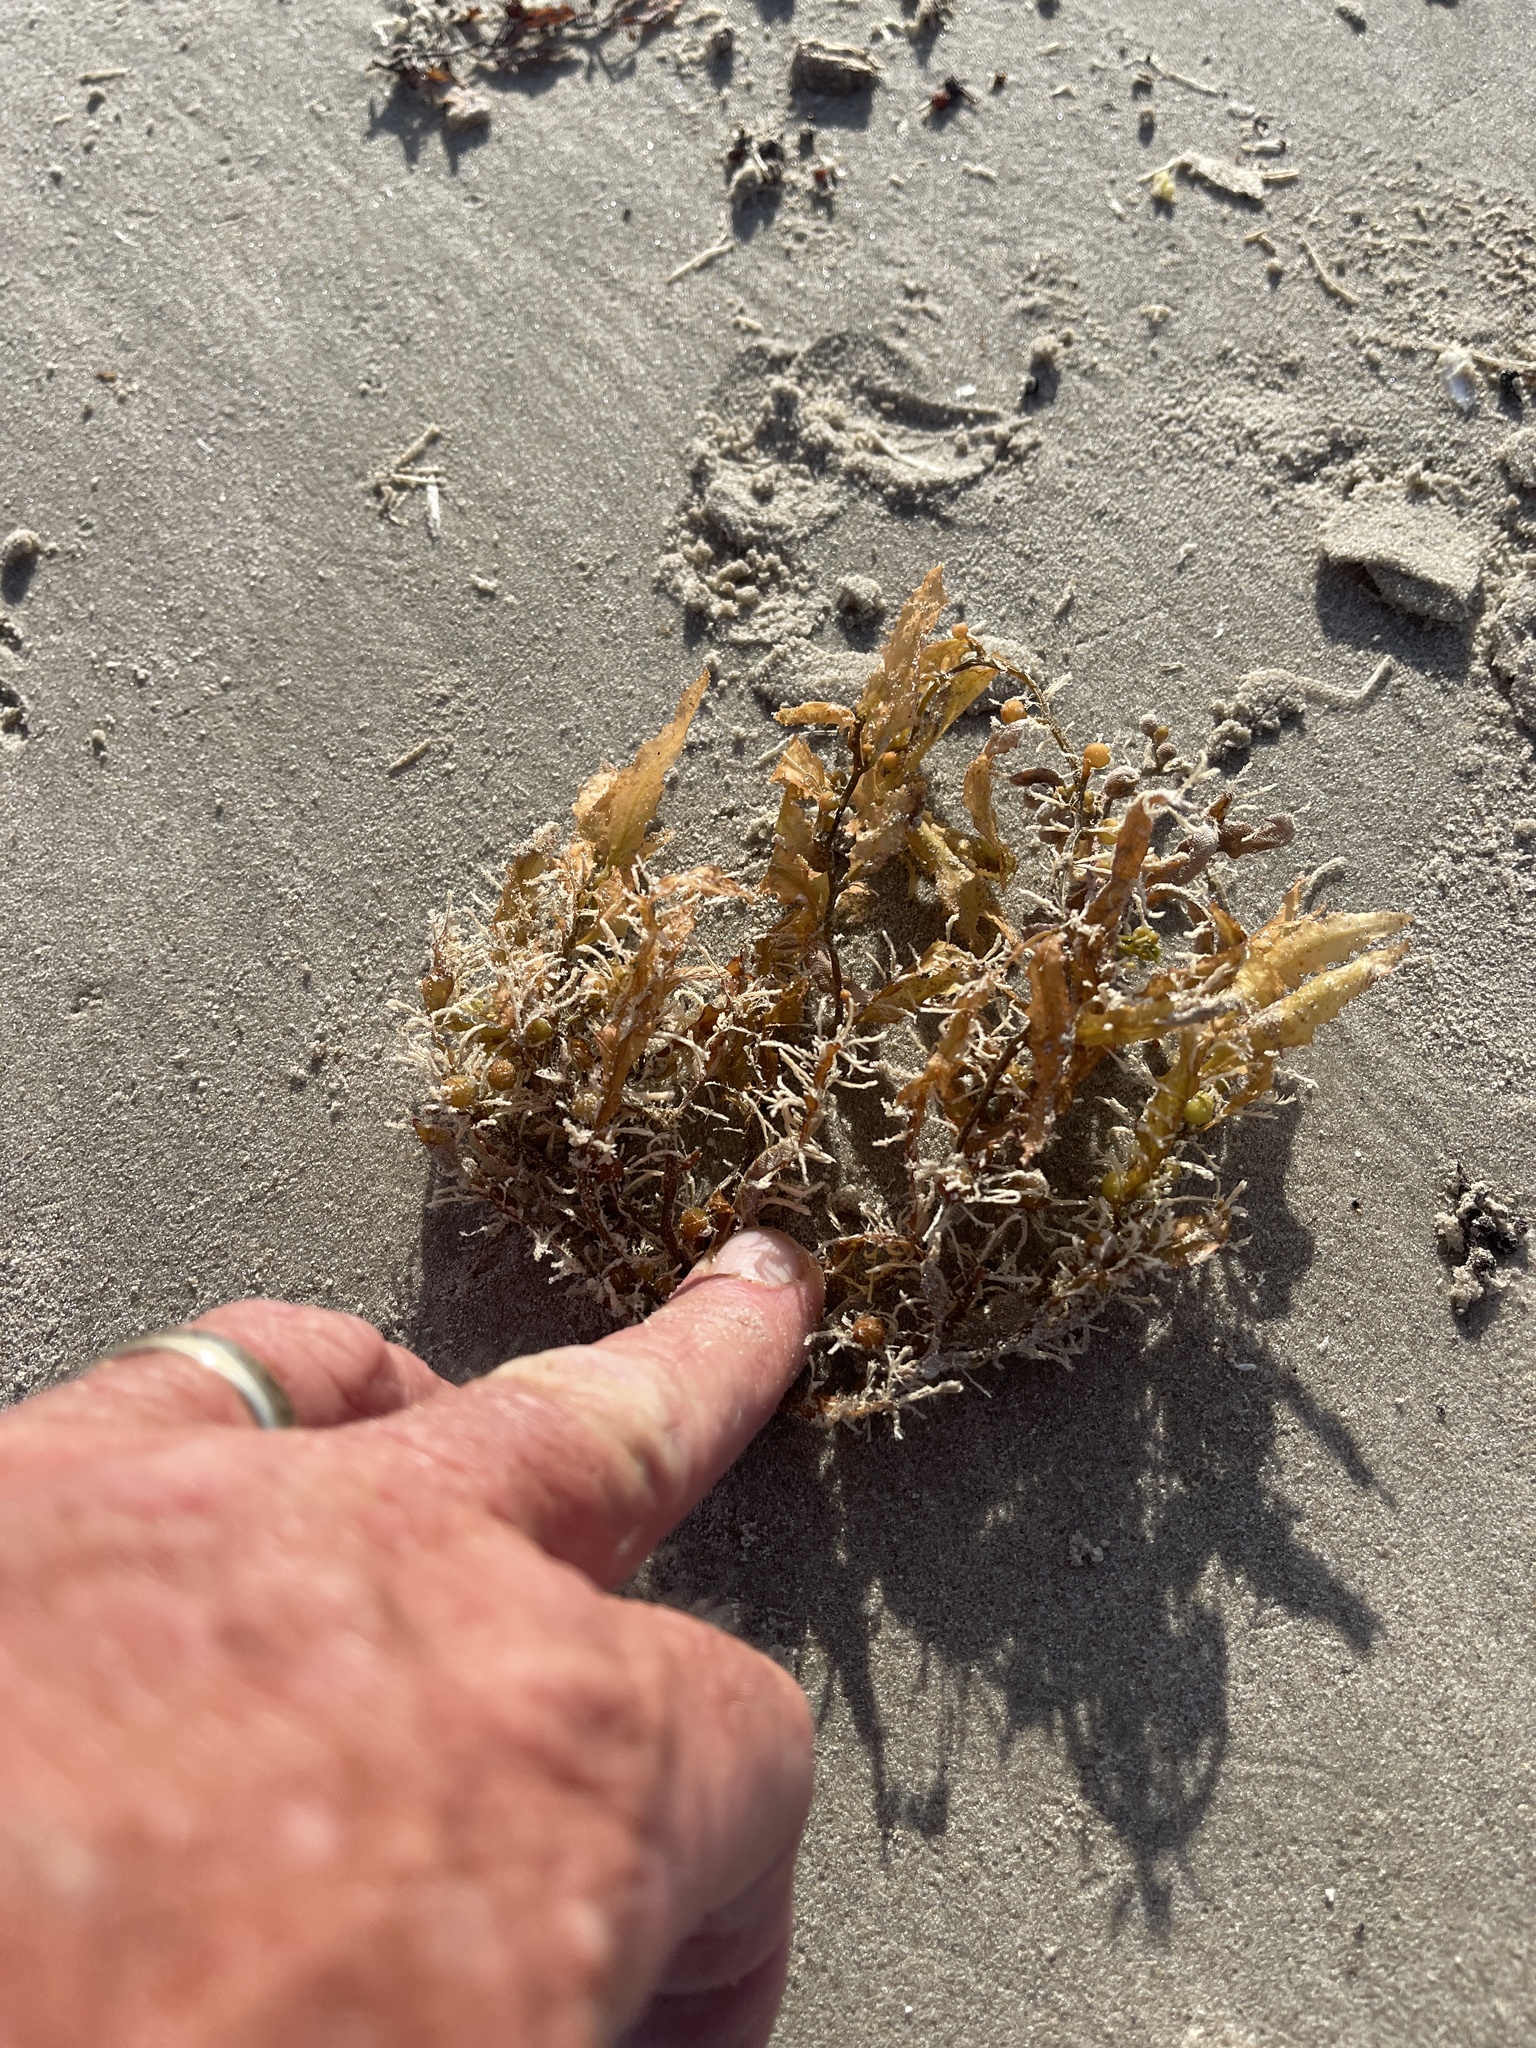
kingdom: Chromista
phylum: Ochrophyta
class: Phaeophyceae
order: Fucales
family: Sargassaceae
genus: Sargassum
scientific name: Sargassum fluitans
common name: Sargassum seaweed
